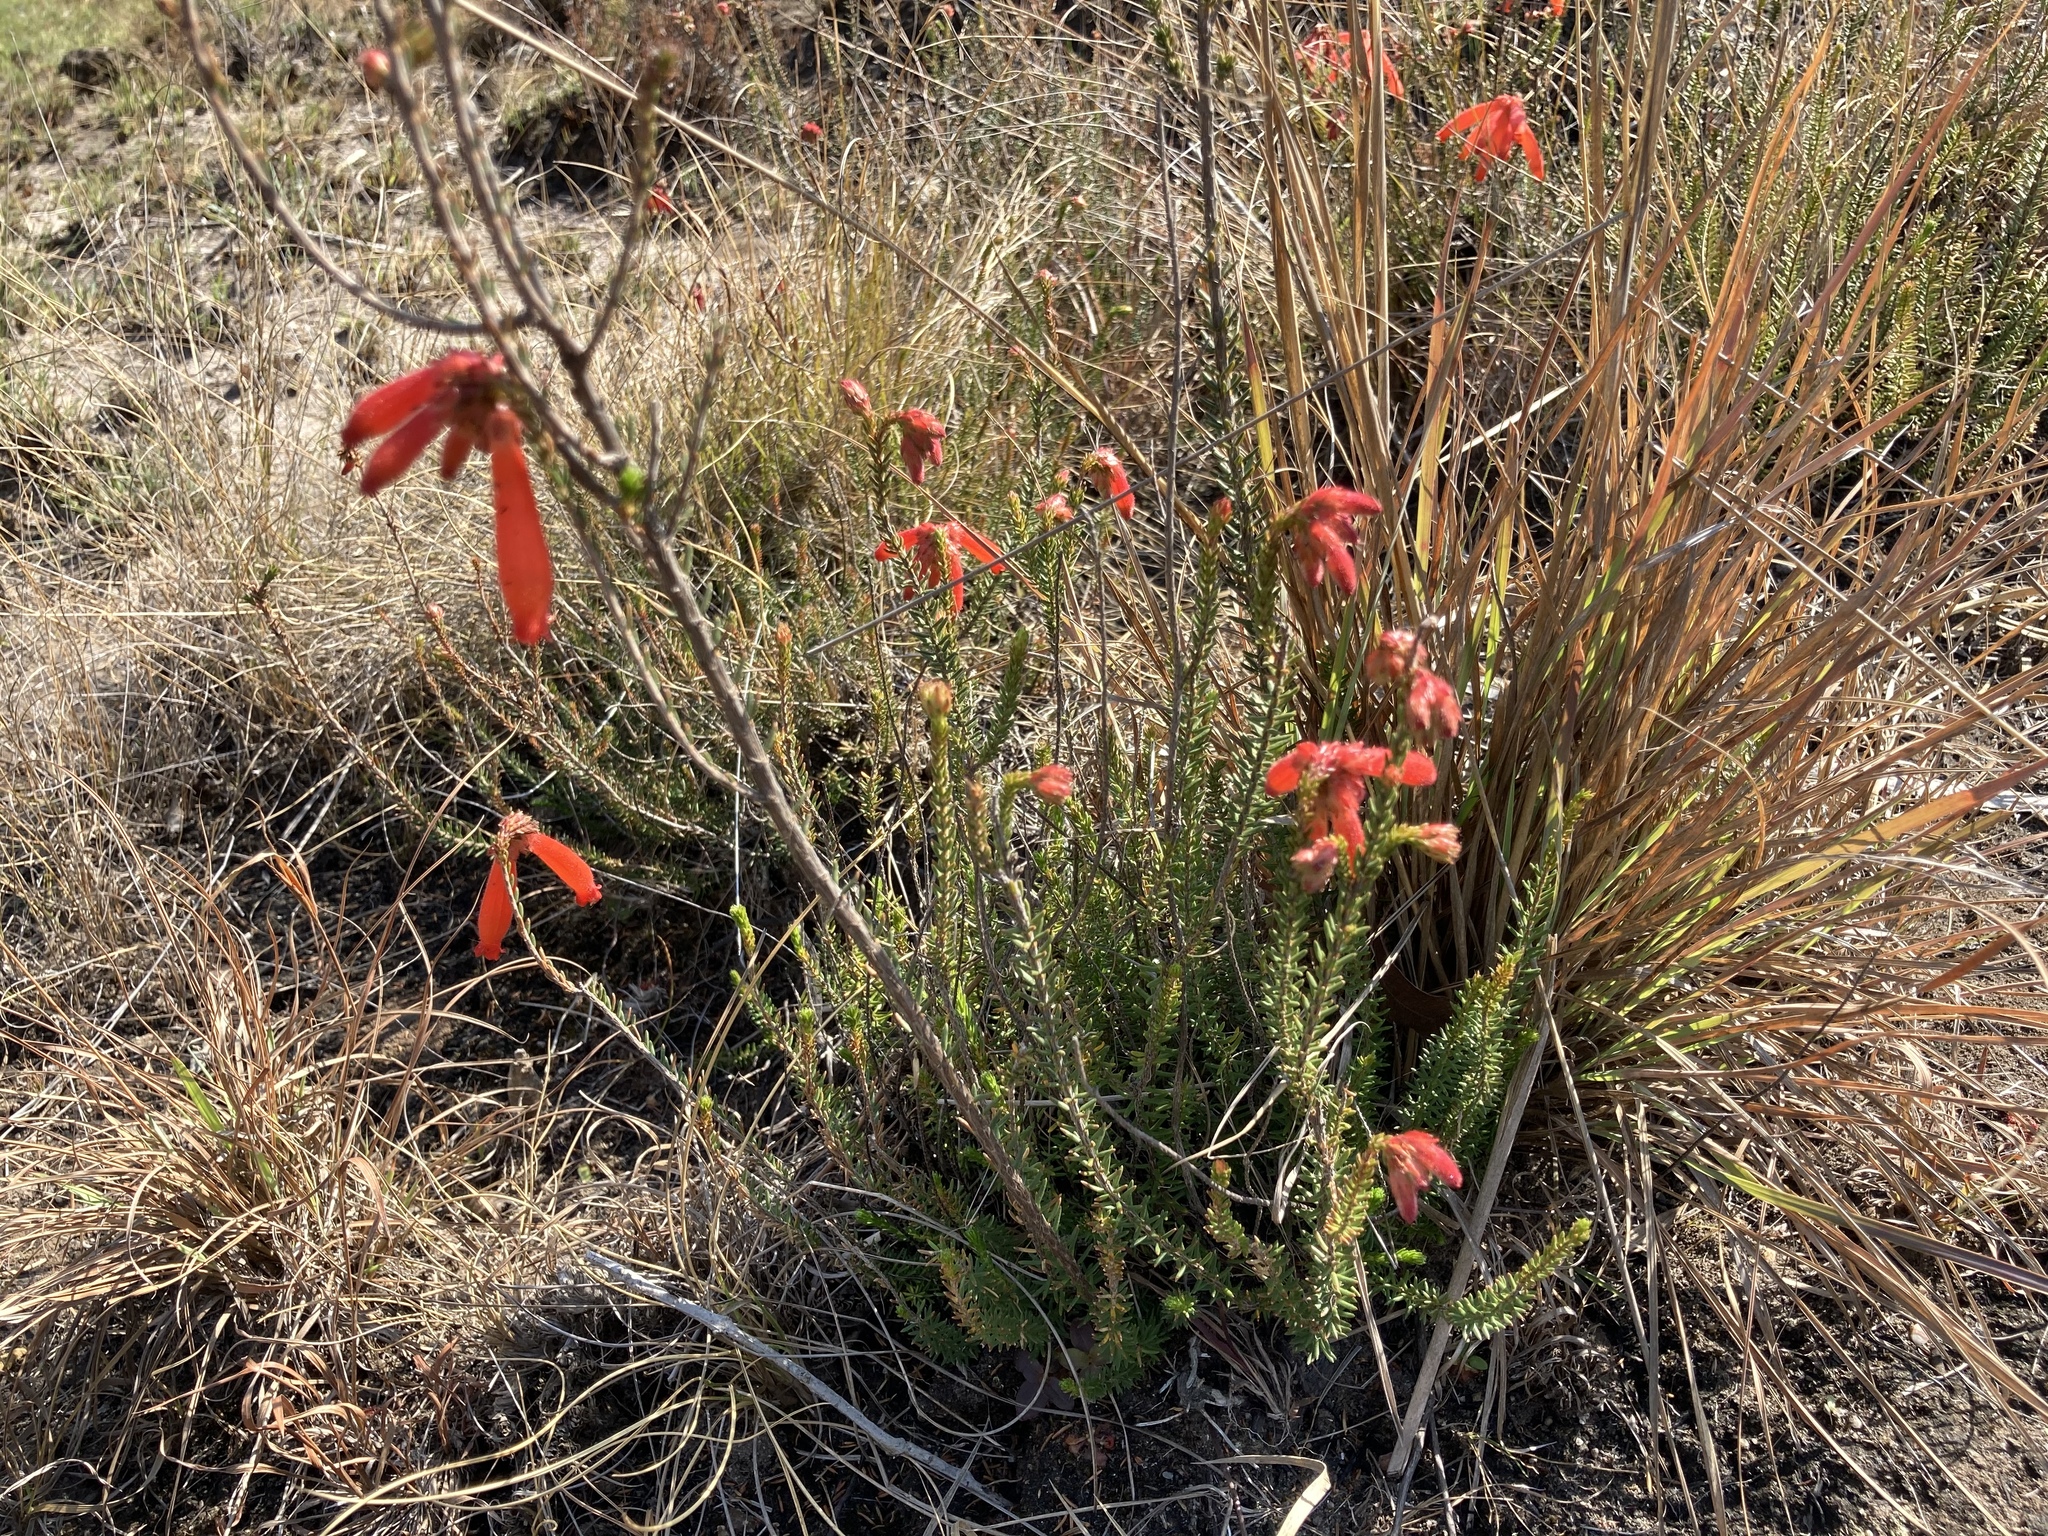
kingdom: Plantae
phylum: Tracheophyta
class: Magnoliopsida
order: Ericales
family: Ericaceae
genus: Erica
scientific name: Erica cerinthoides
